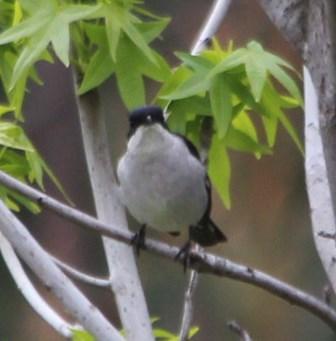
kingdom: Animalia
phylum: Chordata
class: Aves
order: Passeriformes
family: Muscicapidae
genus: Sigelus
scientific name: Sigelus silens
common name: Fiscal flycatcher
